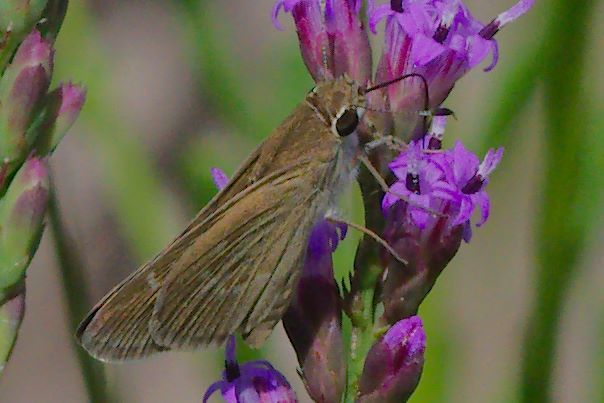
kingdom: Animalia
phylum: Arthropoda
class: Insecta
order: Lepidoptera
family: Hesperiidae
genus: Lerodea
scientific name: Lerodea eufala
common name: Eufala skipper
